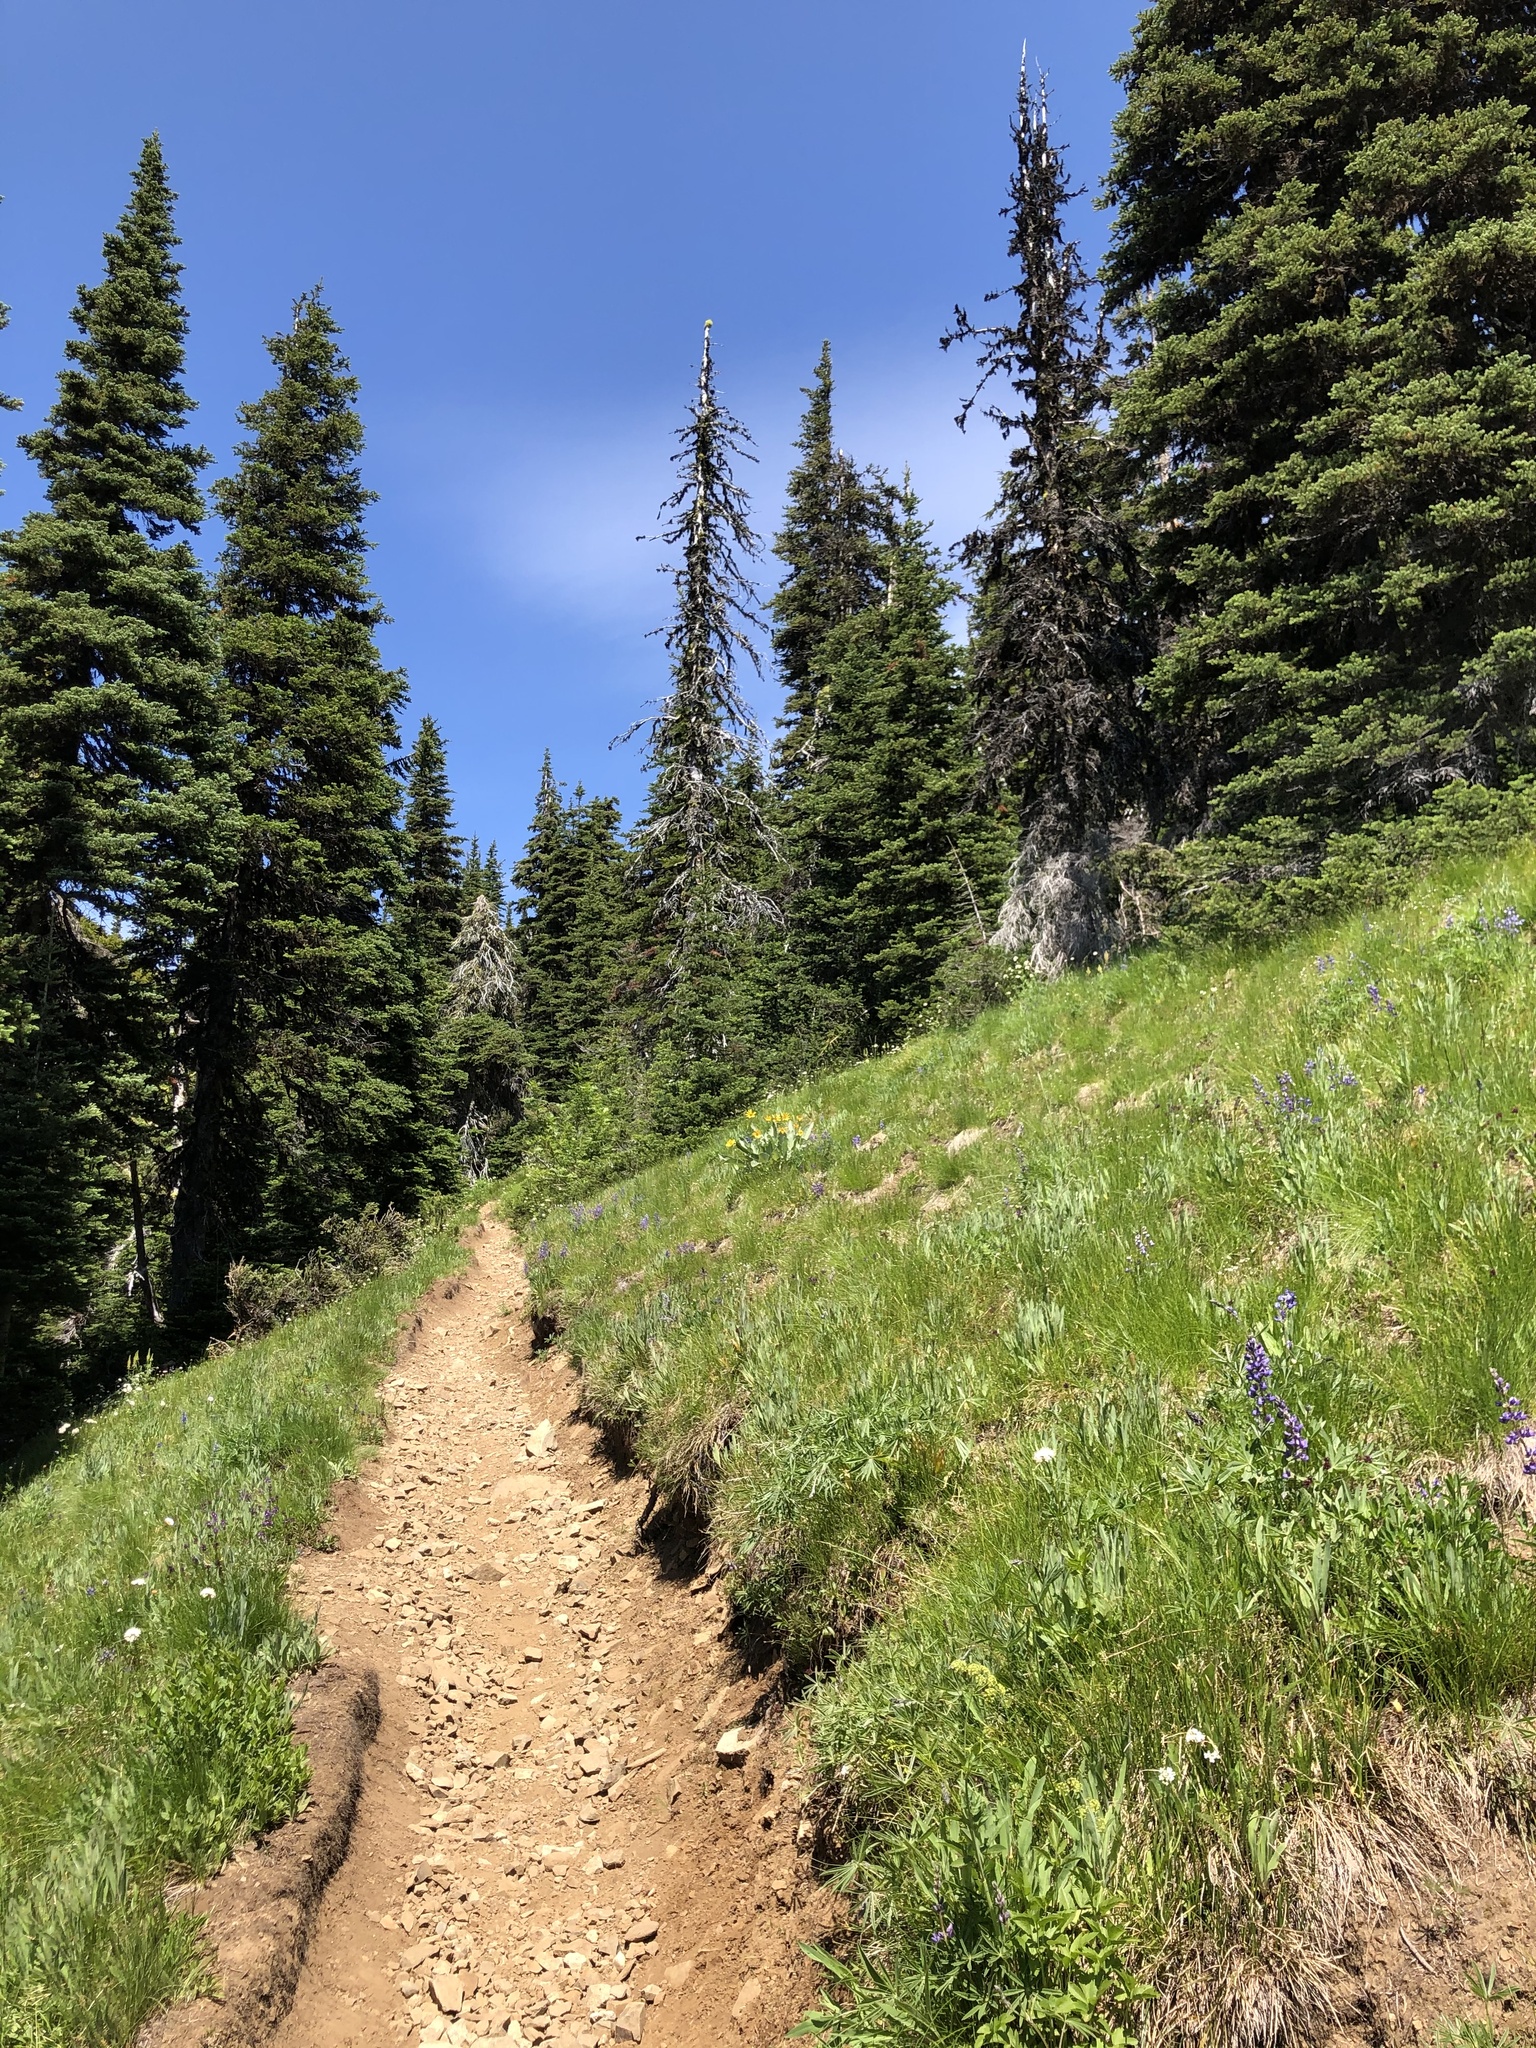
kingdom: Plantae
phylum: Tracheophyta
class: Pinopsida
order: Pinales
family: Pinaceae
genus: Abies
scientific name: Abies lasiocarpa
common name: Subalpine fir
